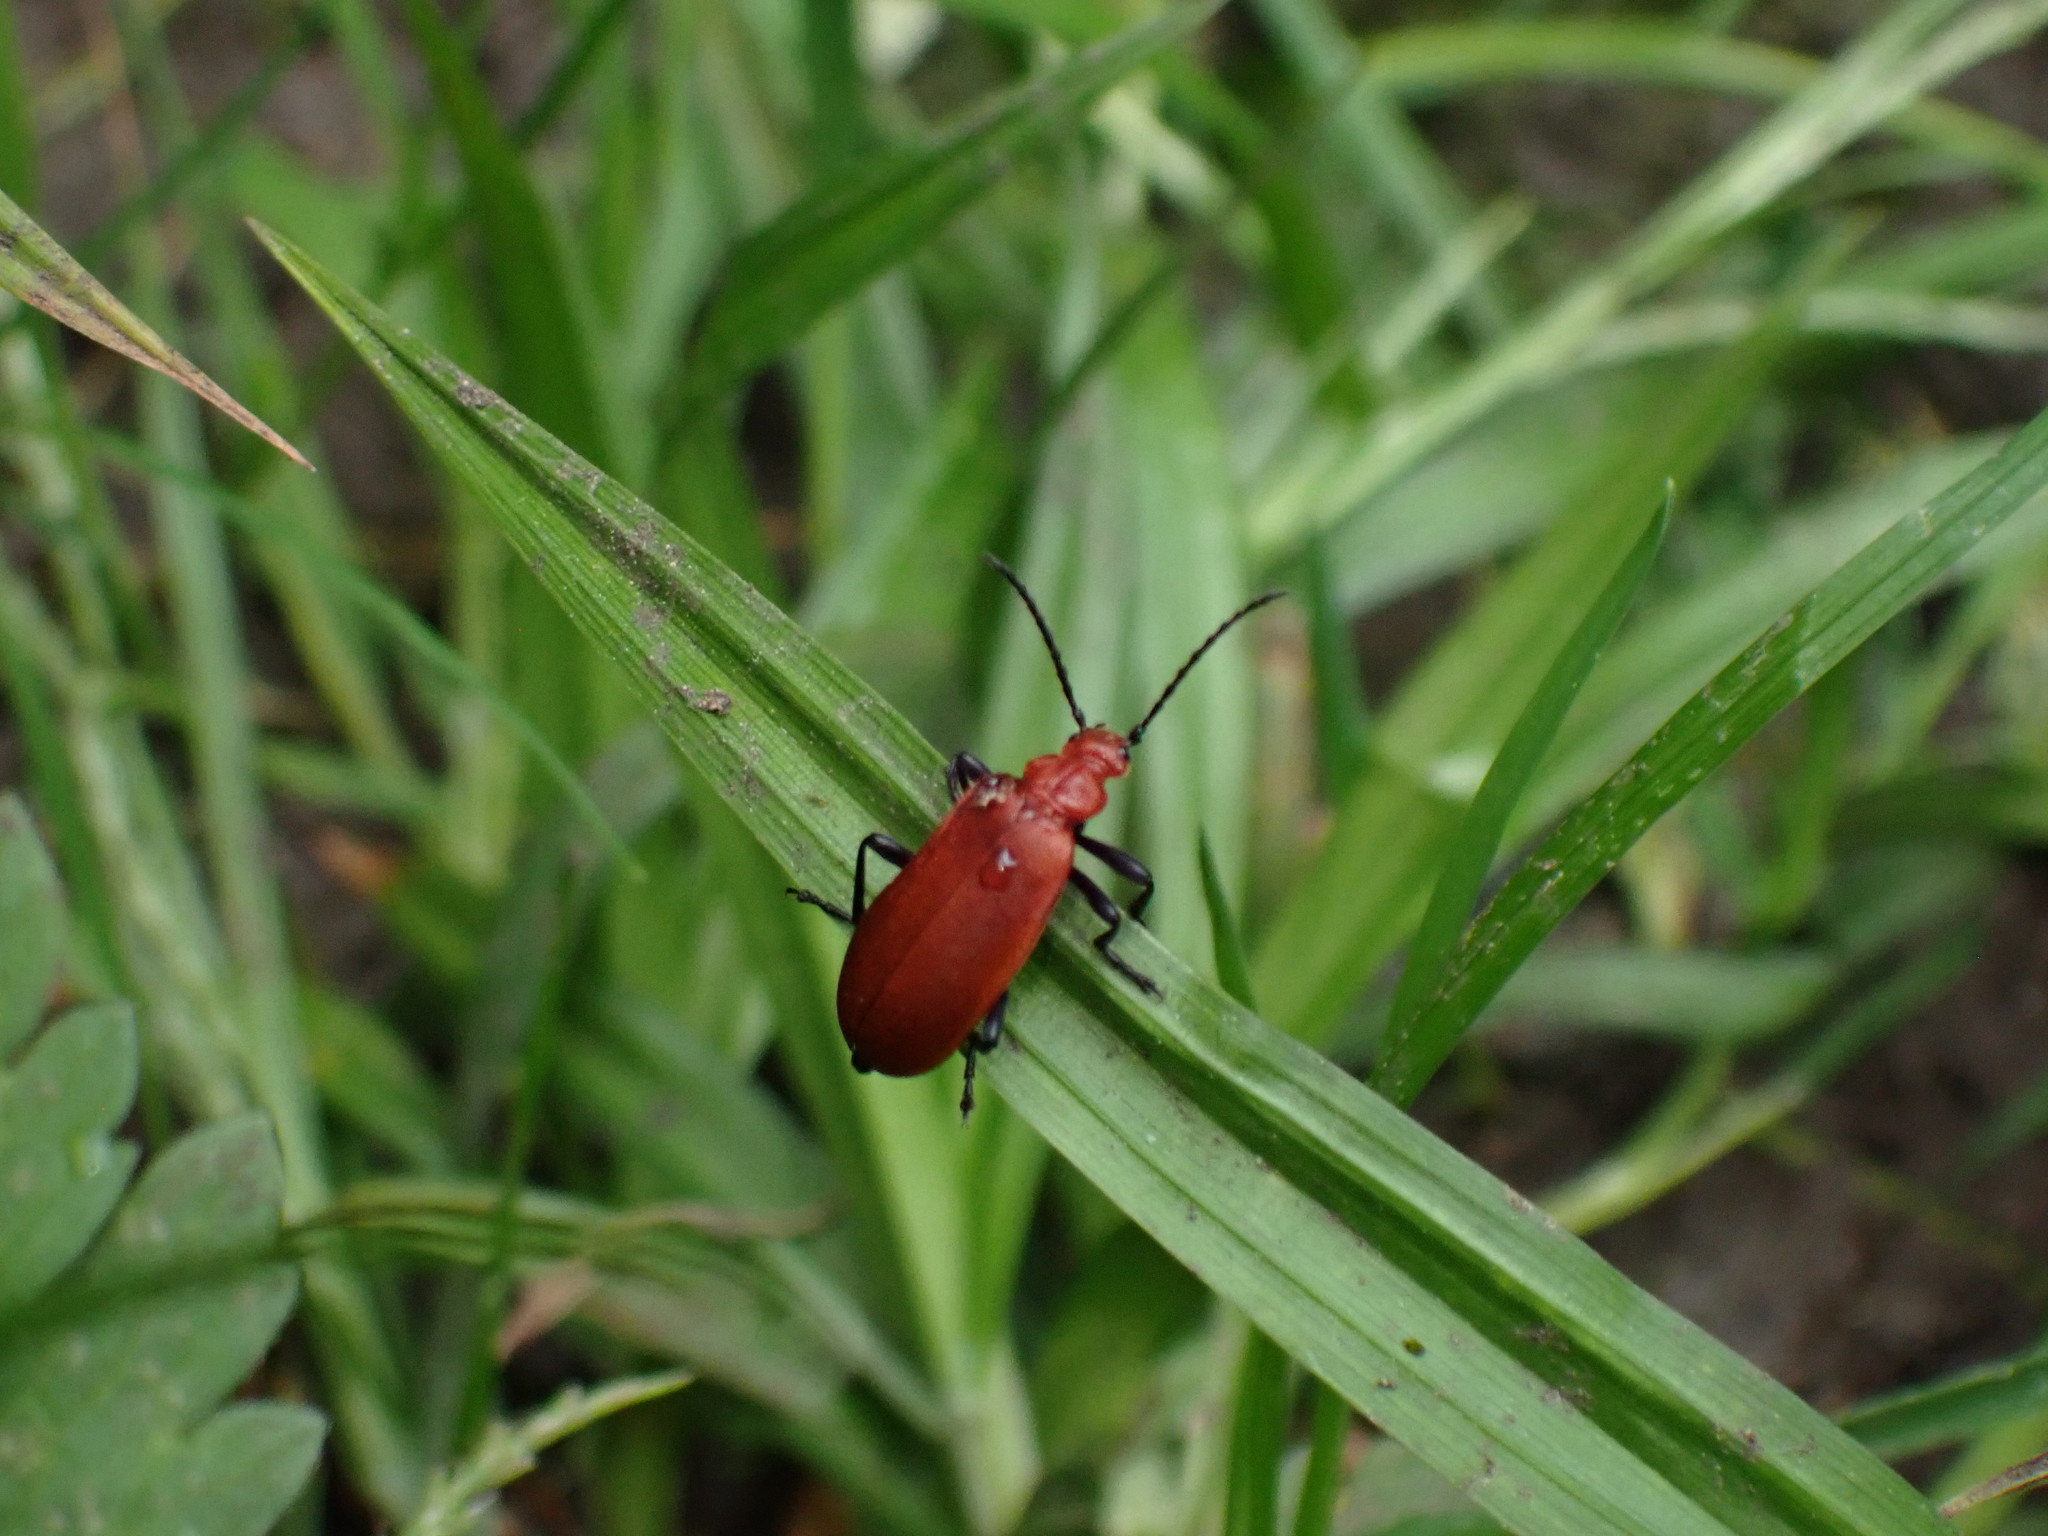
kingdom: Animalia
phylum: Arthropoda
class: Insecta
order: Coleoptera
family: Pyrochroidae
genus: Pyrochroa
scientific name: Pyrochroa serraticornis
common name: Red-headed cardinal beetle
